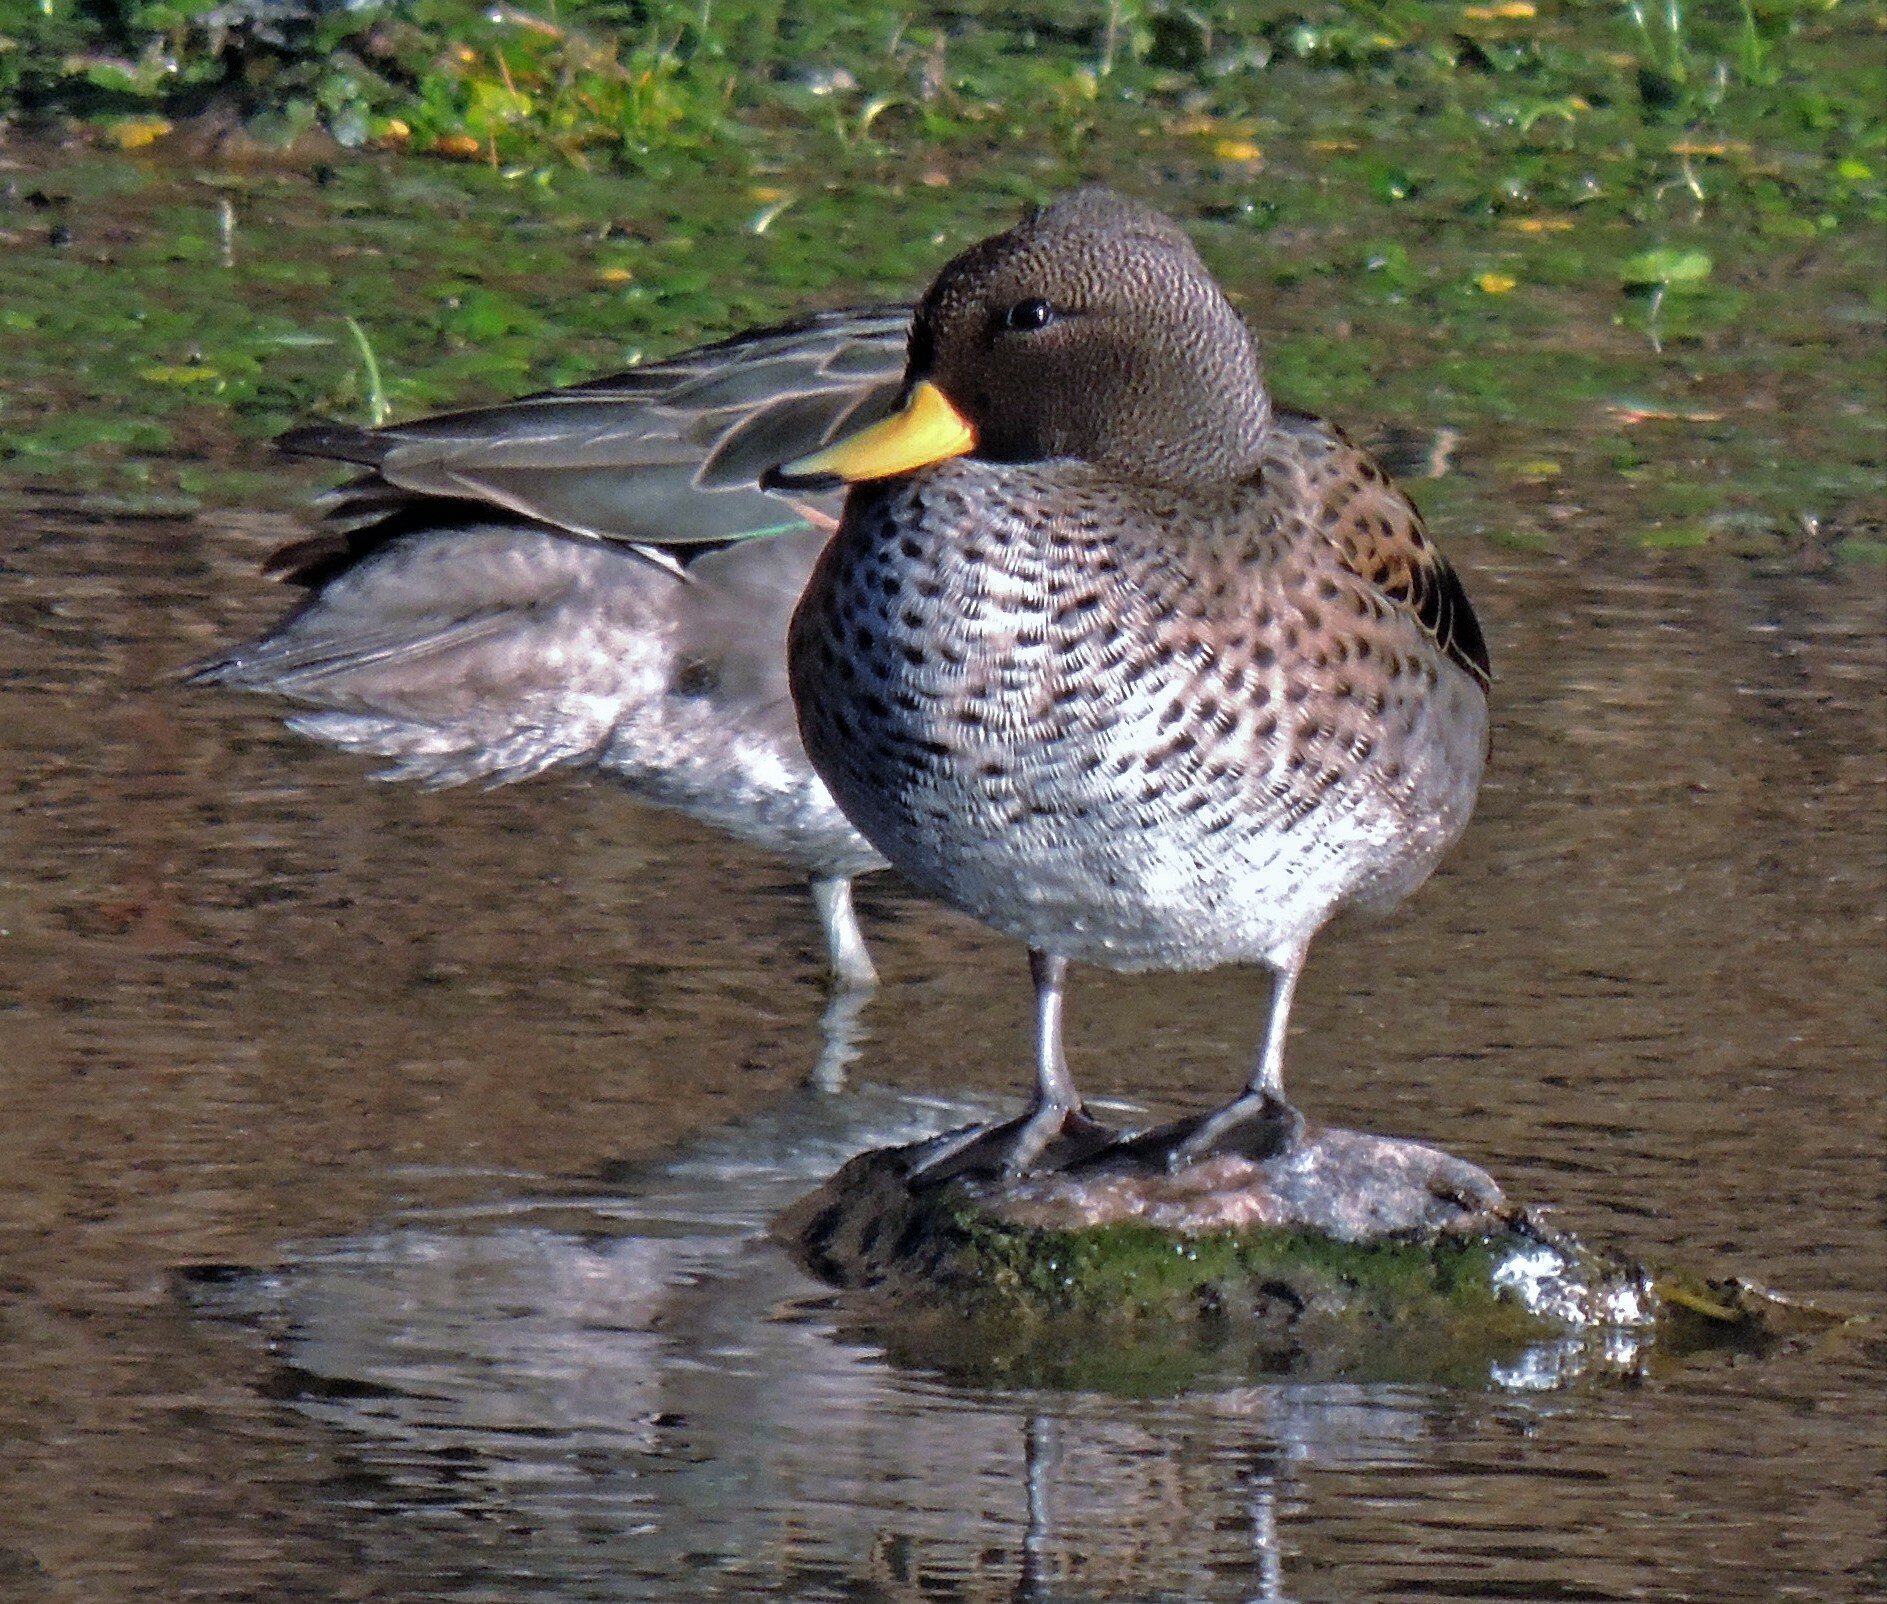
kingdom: Animalia
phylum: Chordata
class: Aves
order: Anseriformes
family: Anatidae
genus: Anas
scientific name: Anas flavirostris
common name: Yellow-billed teal
